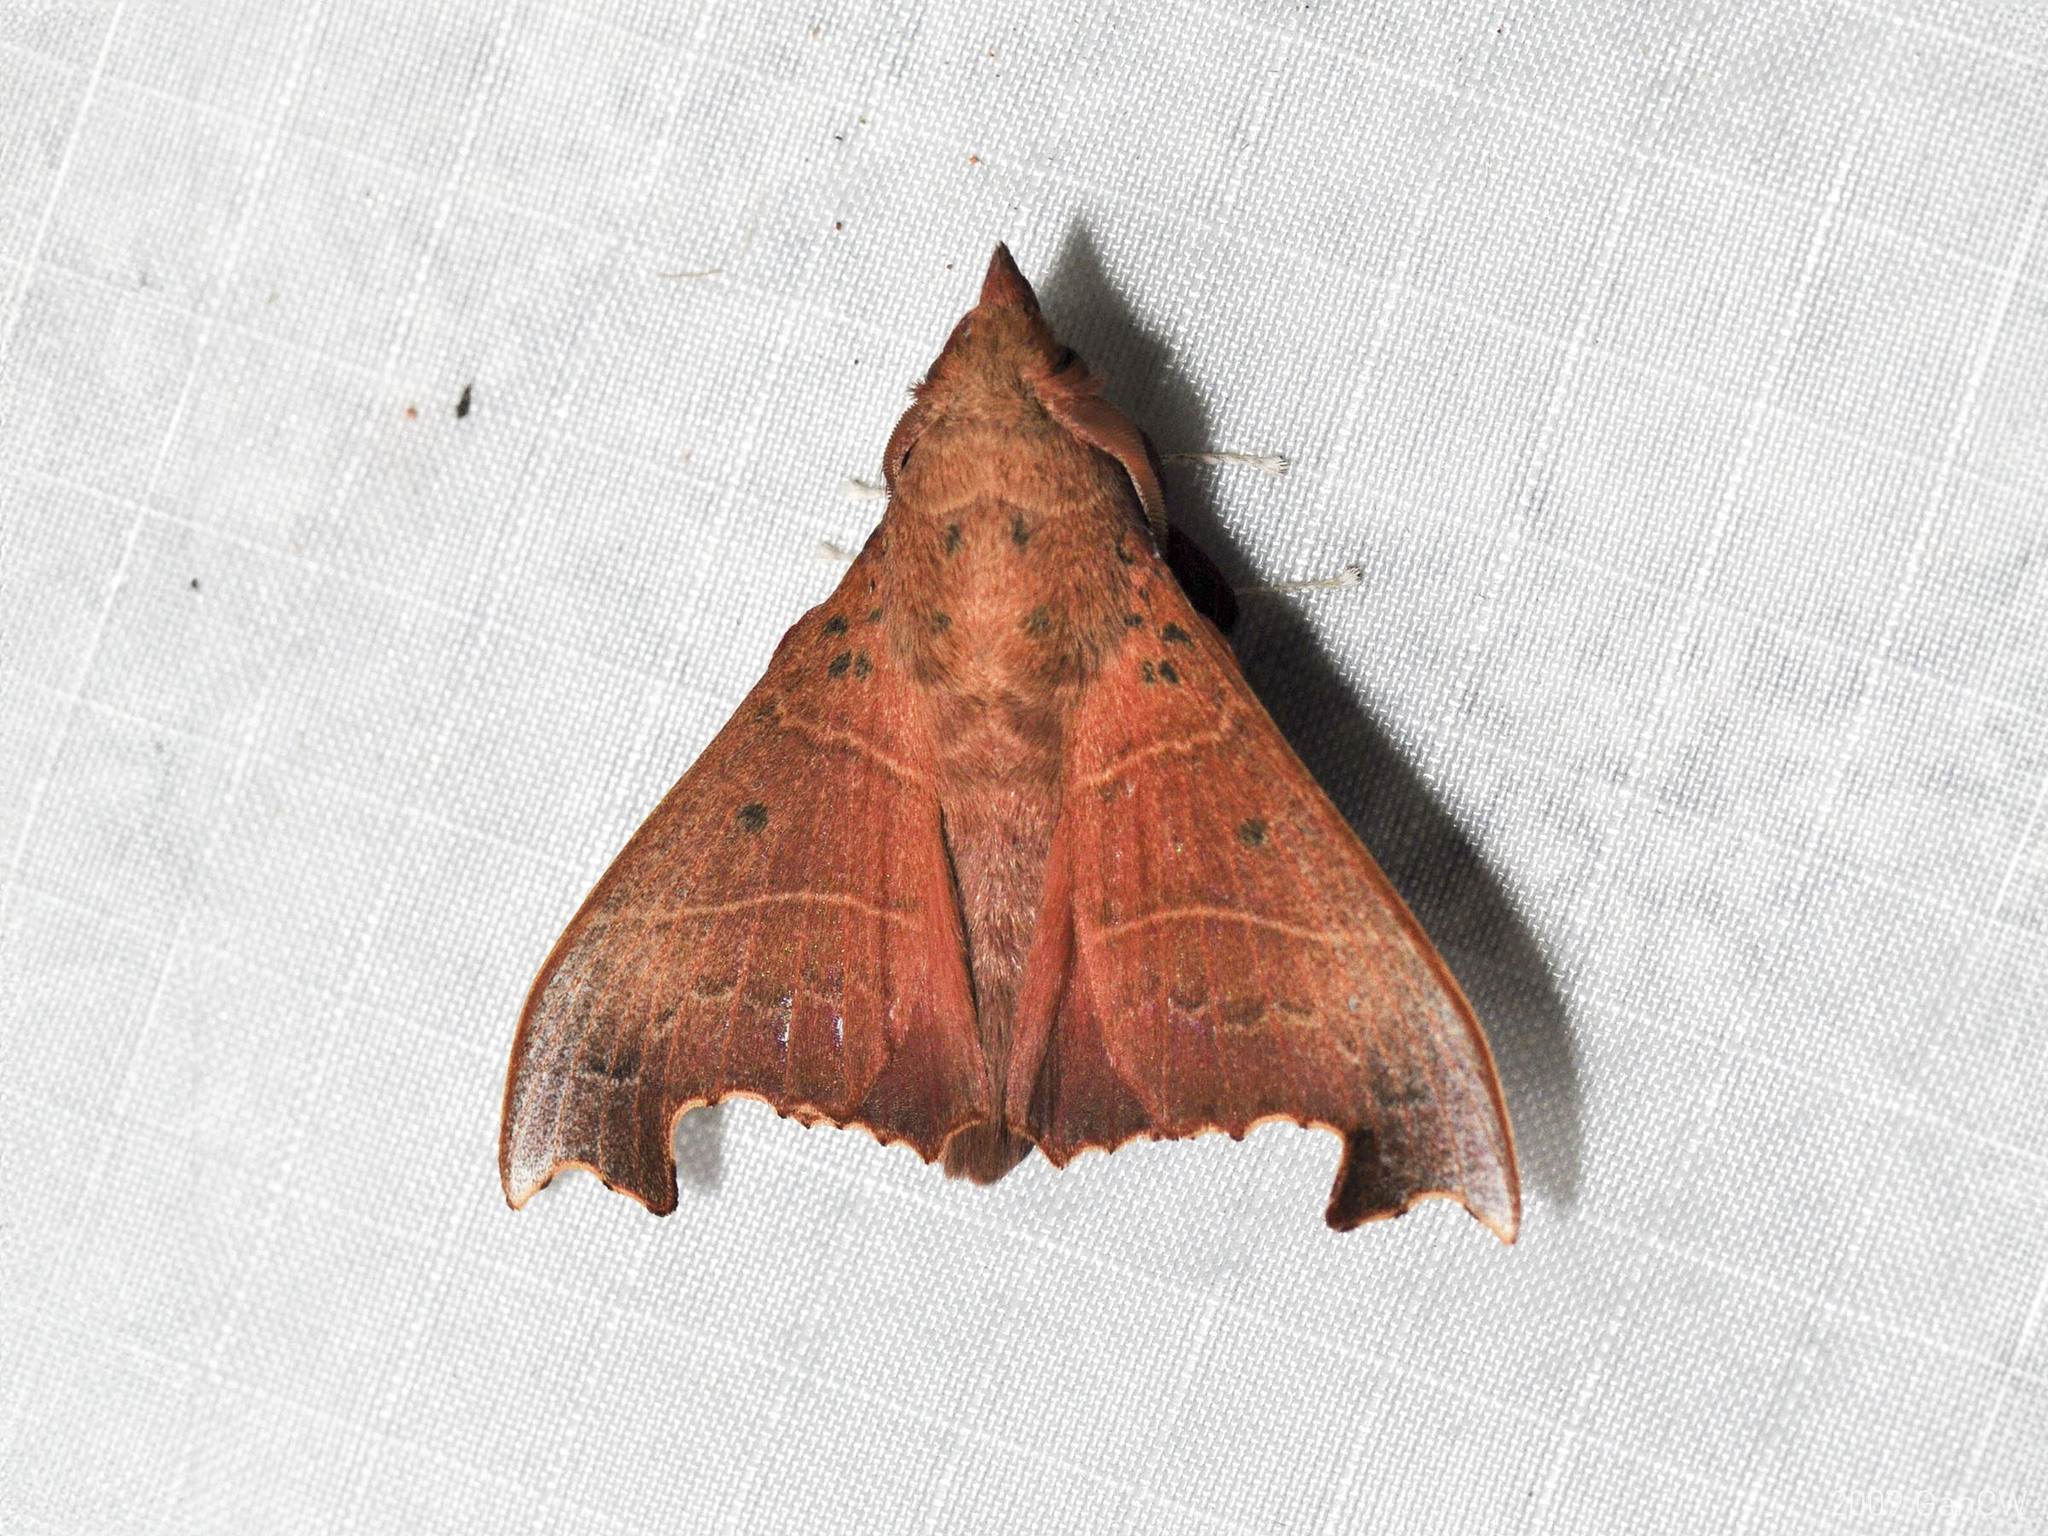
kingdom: Animalia
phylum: Arthropoda
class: Insecta
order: Lepidoptera
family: Lasiocampidae
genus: Hallicarnia
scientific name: Hallicarnia albipectus
